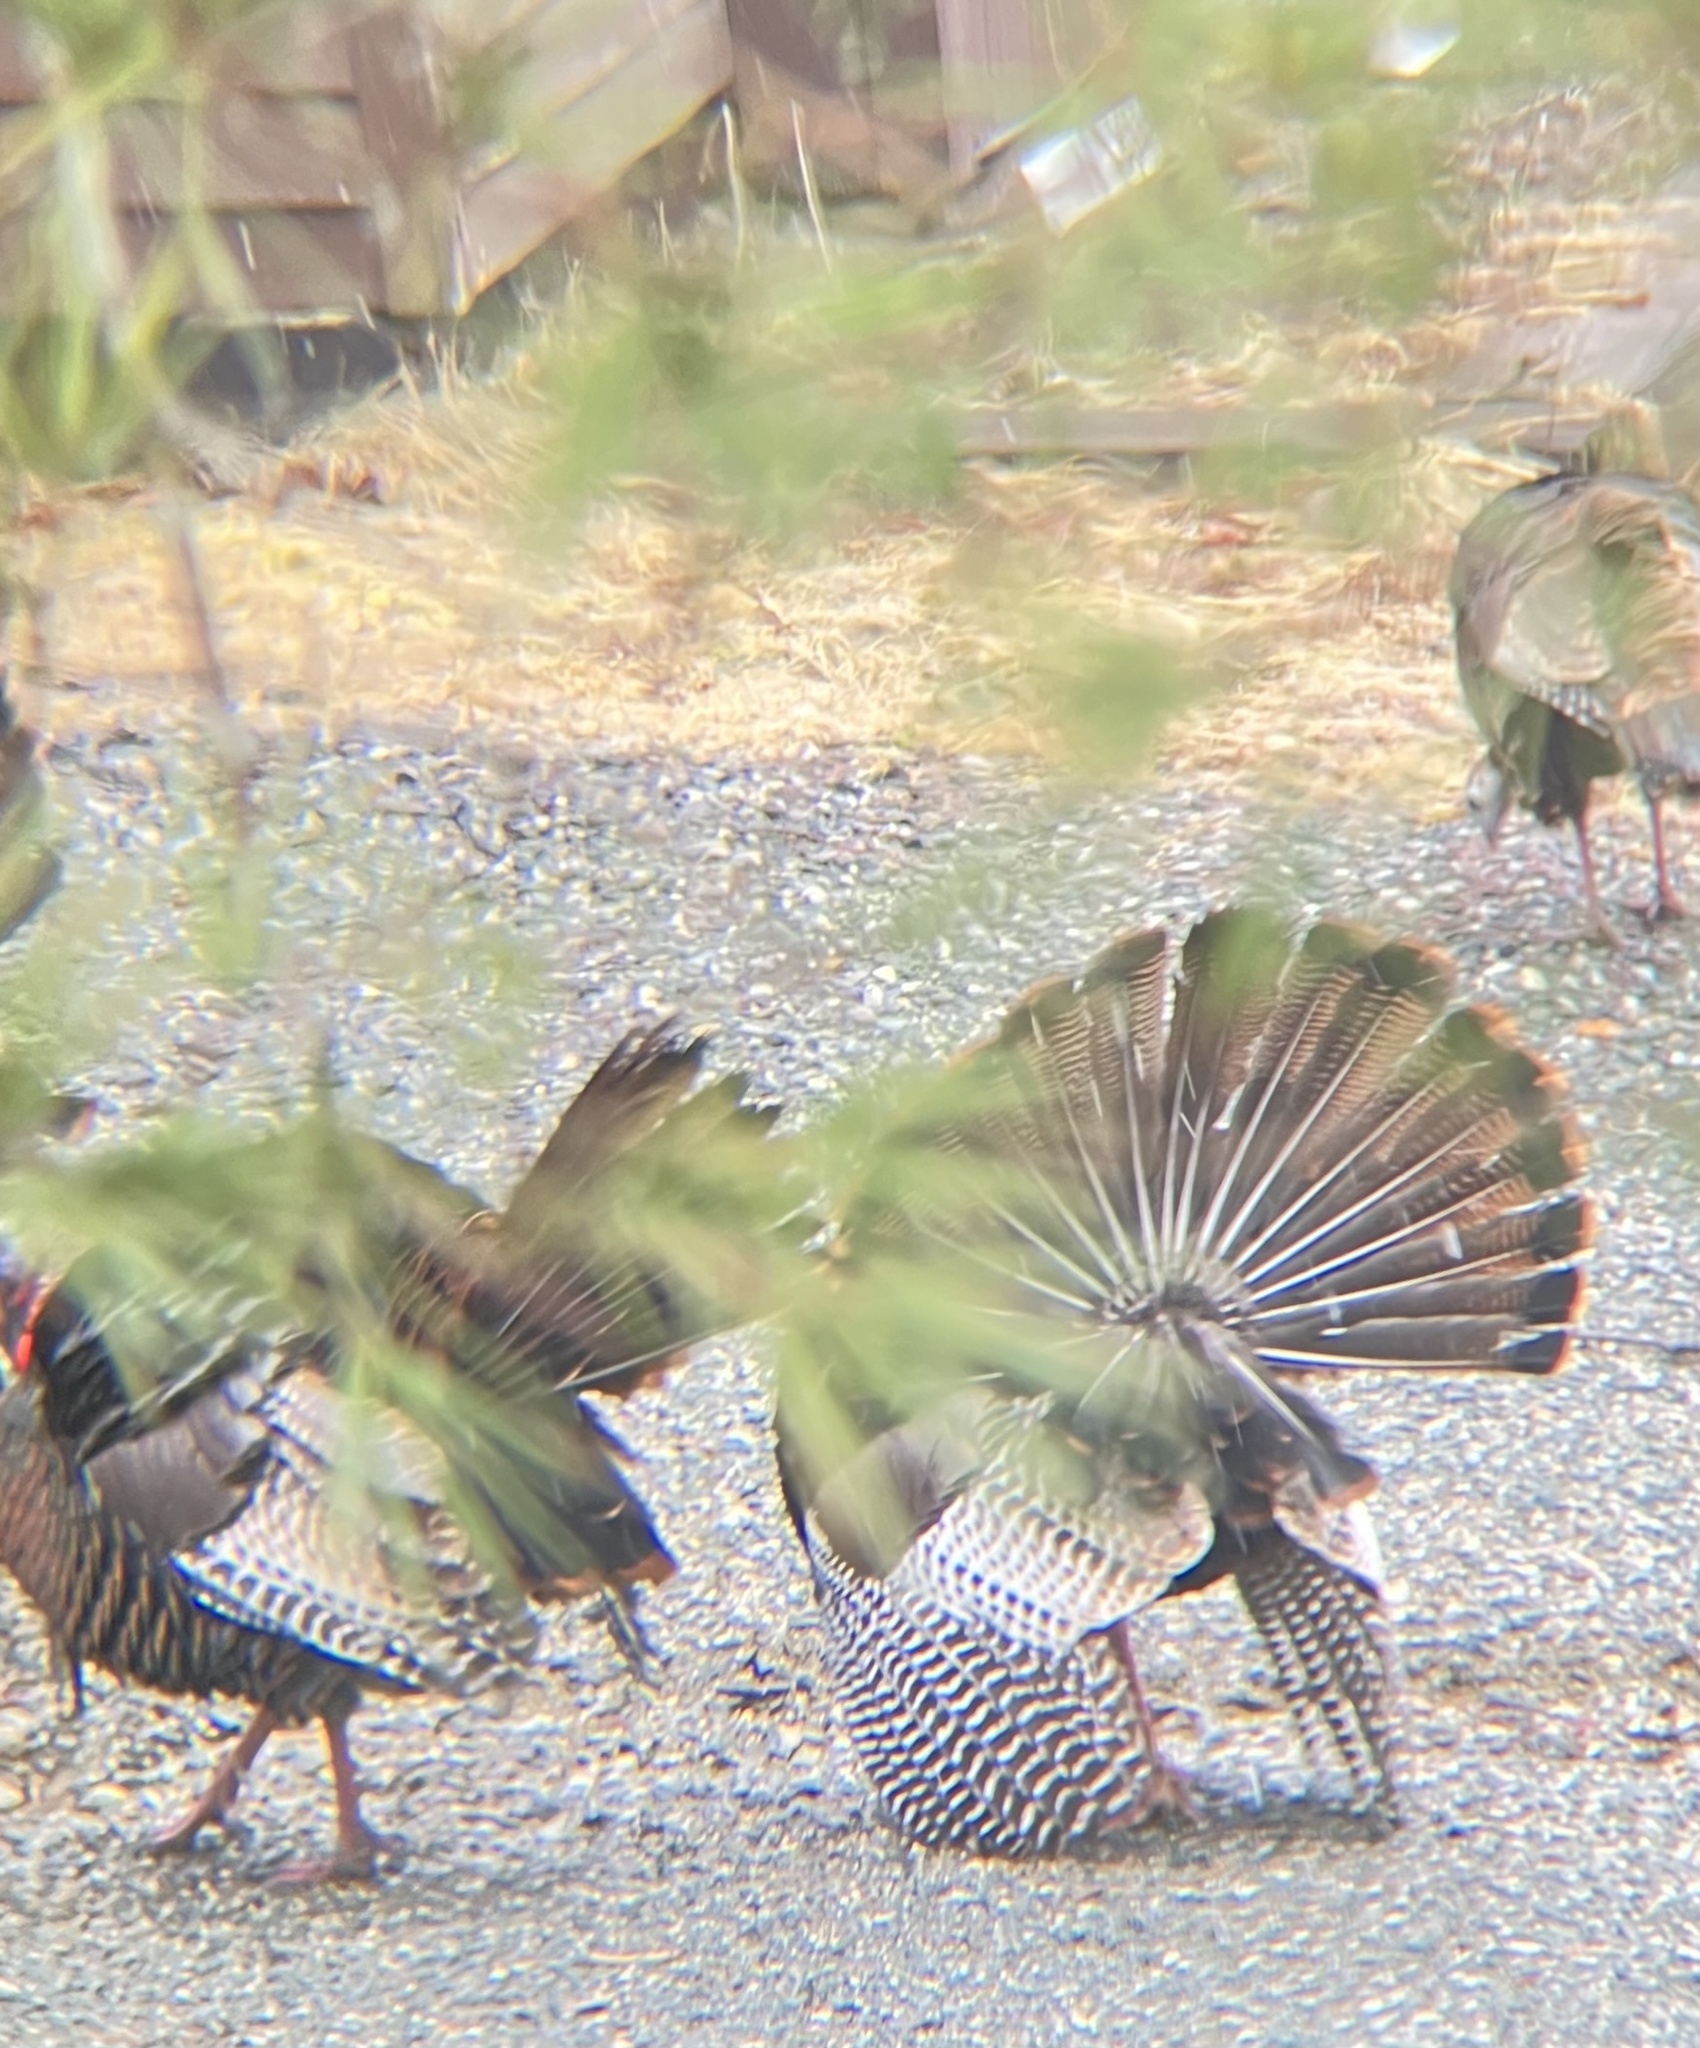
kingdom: Animalia
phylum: Chordata
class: Aves
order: Galliformes
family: Phasianidae
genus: Meleagris
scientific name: Meleagris gallopavo
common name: Wild turkey
